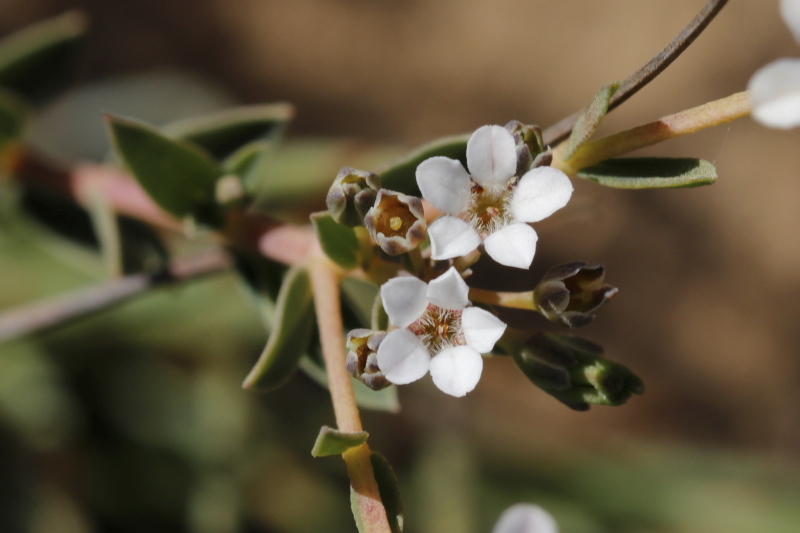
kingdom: Plantae
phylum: Tracheophyta
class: Magnoliopsida
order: Sapindales
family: Rutaceae
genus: Euchaetis
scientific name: Euchaetis ericoides
